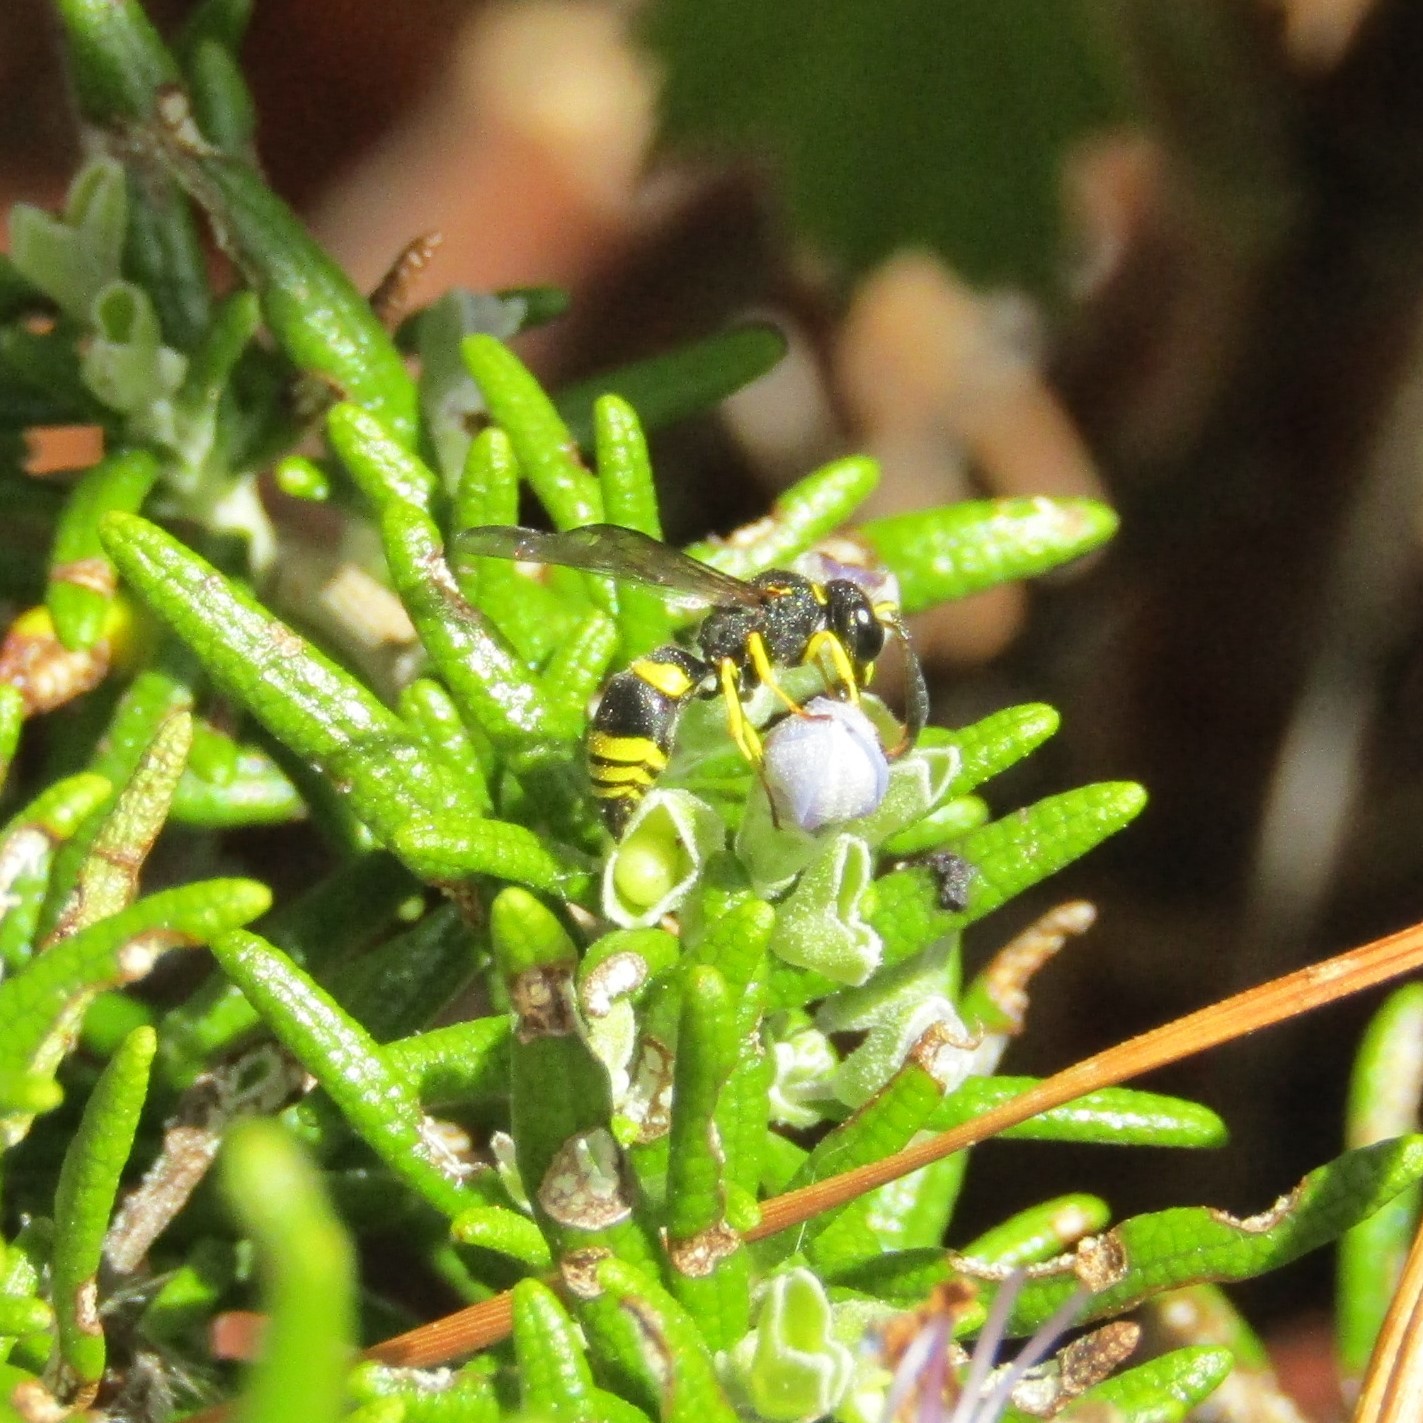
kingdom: Animalia
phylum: Arthropoda
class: Insecta
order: Hymenoptera
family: Vespidae
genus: Ancistrocerus
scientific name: Ancistrocerus gazella
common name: European tube wasp
